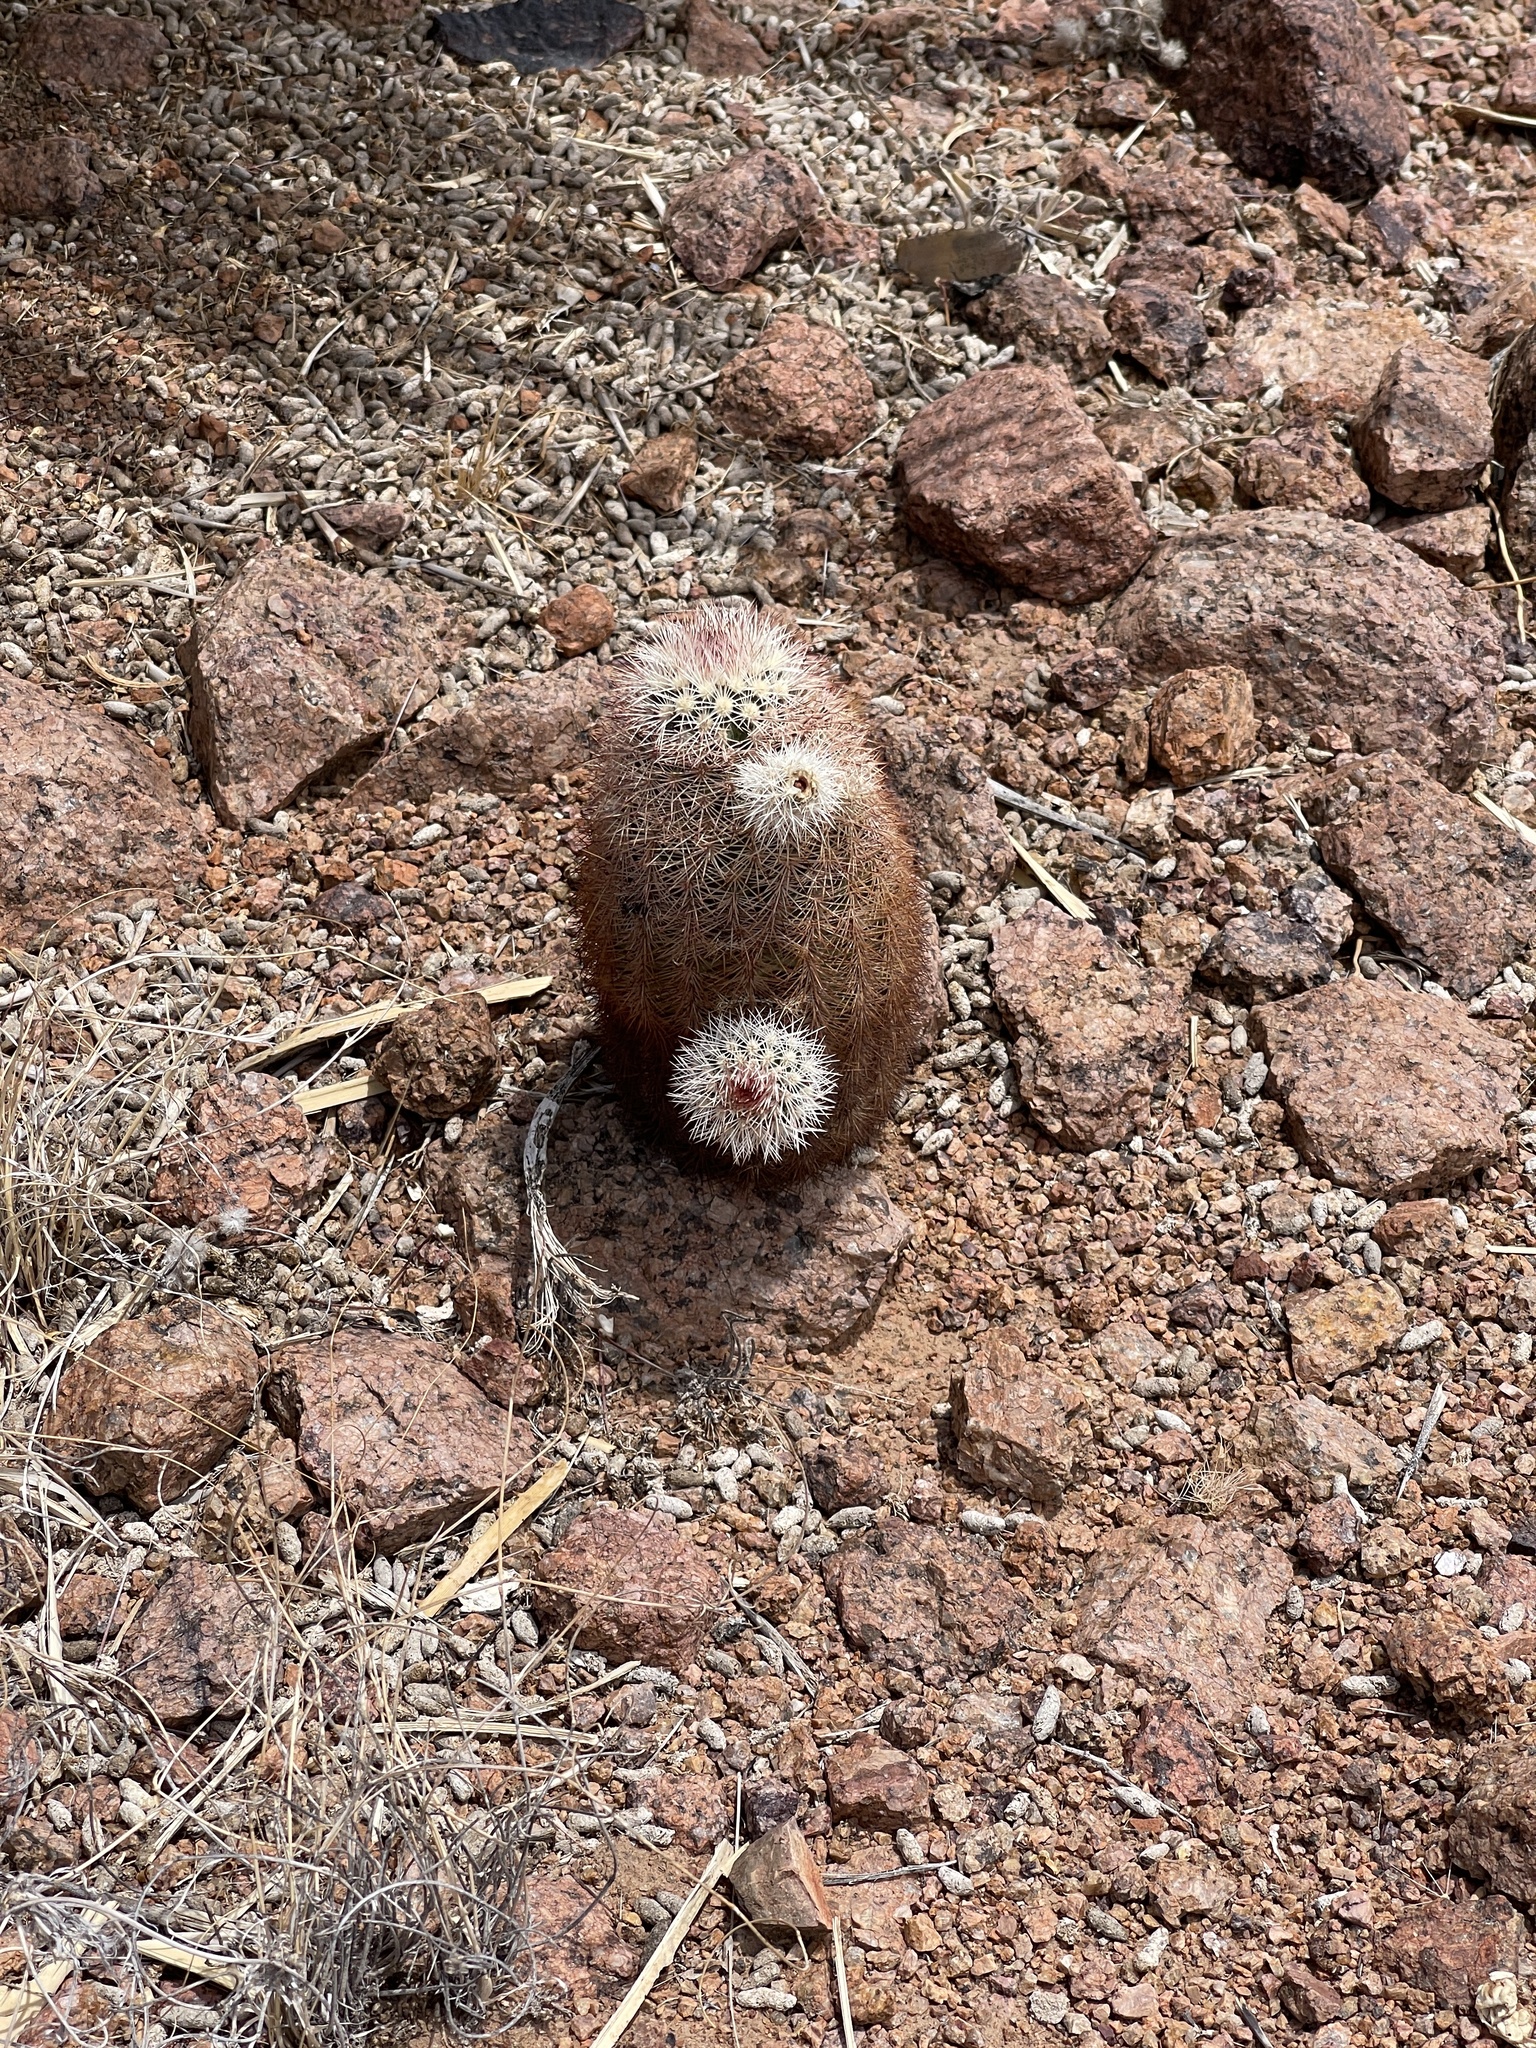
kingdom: Plantae
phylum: Tracheophyta
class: Magnoliopsida
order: Caryophyllales
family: Cactaceae
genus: Echinocereus
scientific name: Echinocereus dasyacanthus
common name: Spiny hedgehog cactus
